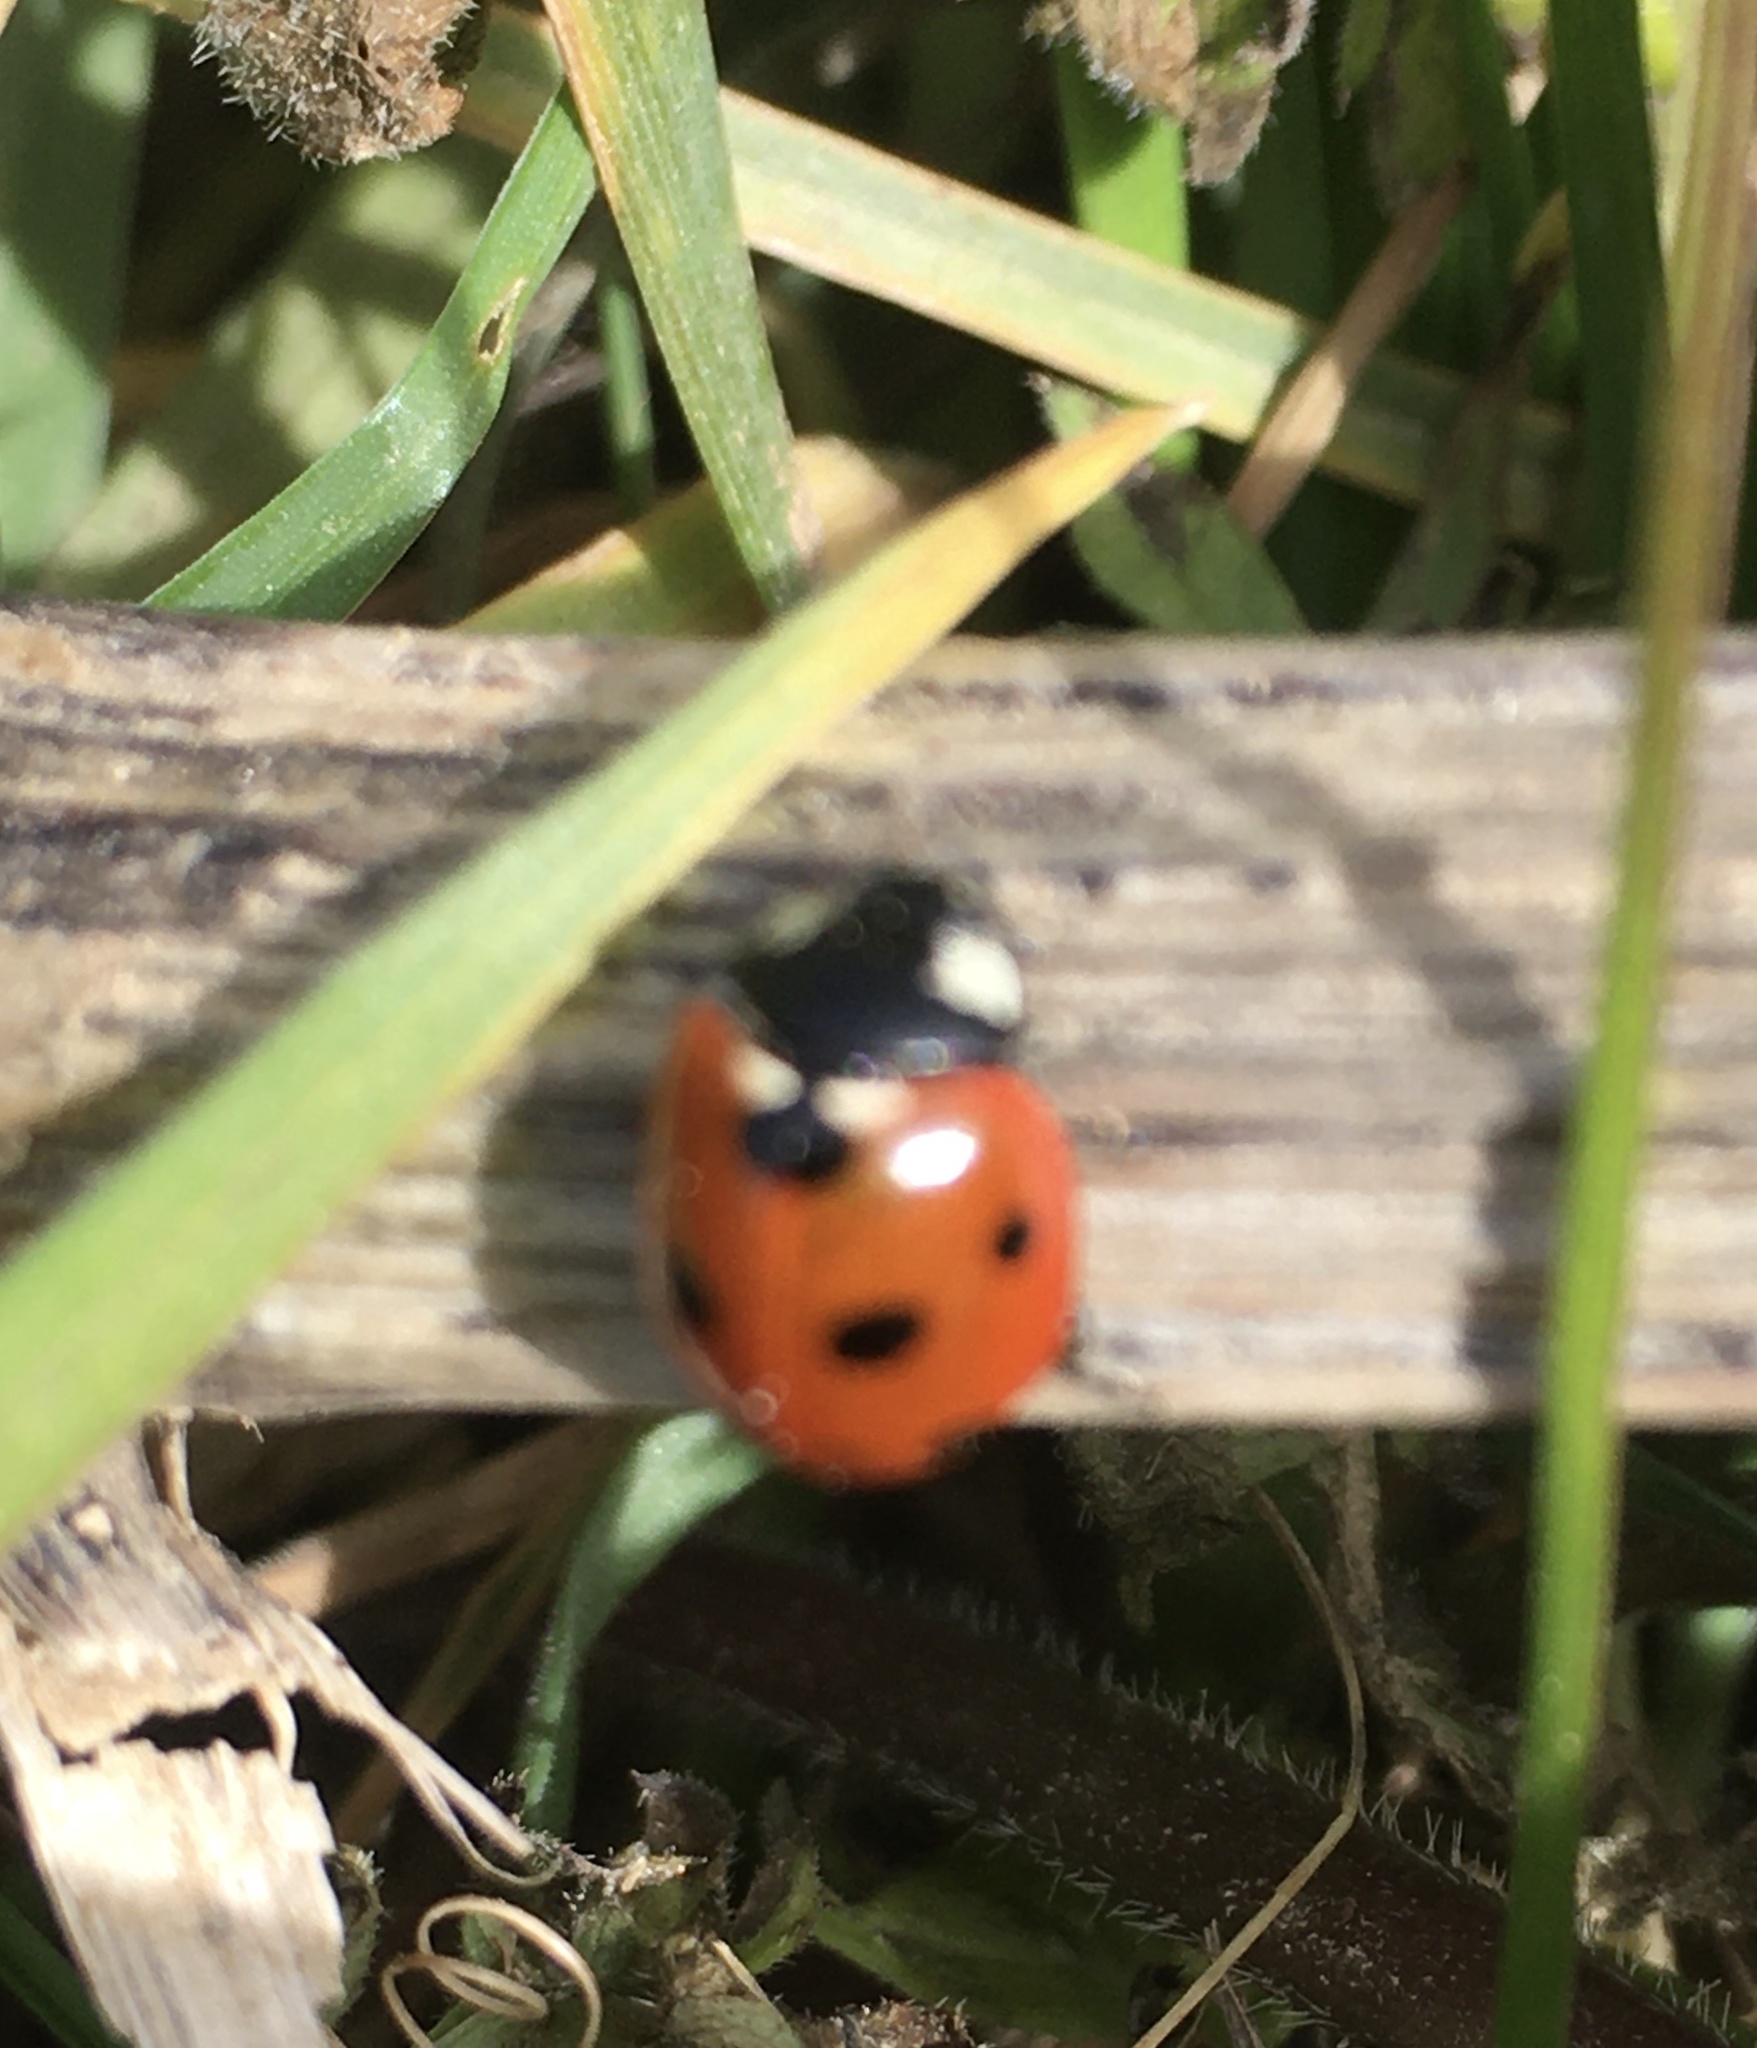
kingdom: Animalia
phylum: Arthropoda
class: Insecta
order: Coleoptera
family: Coccinellidae
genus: Coccinella
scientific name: Coccinella septempunctata
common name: Sevenspotted lady beetle
